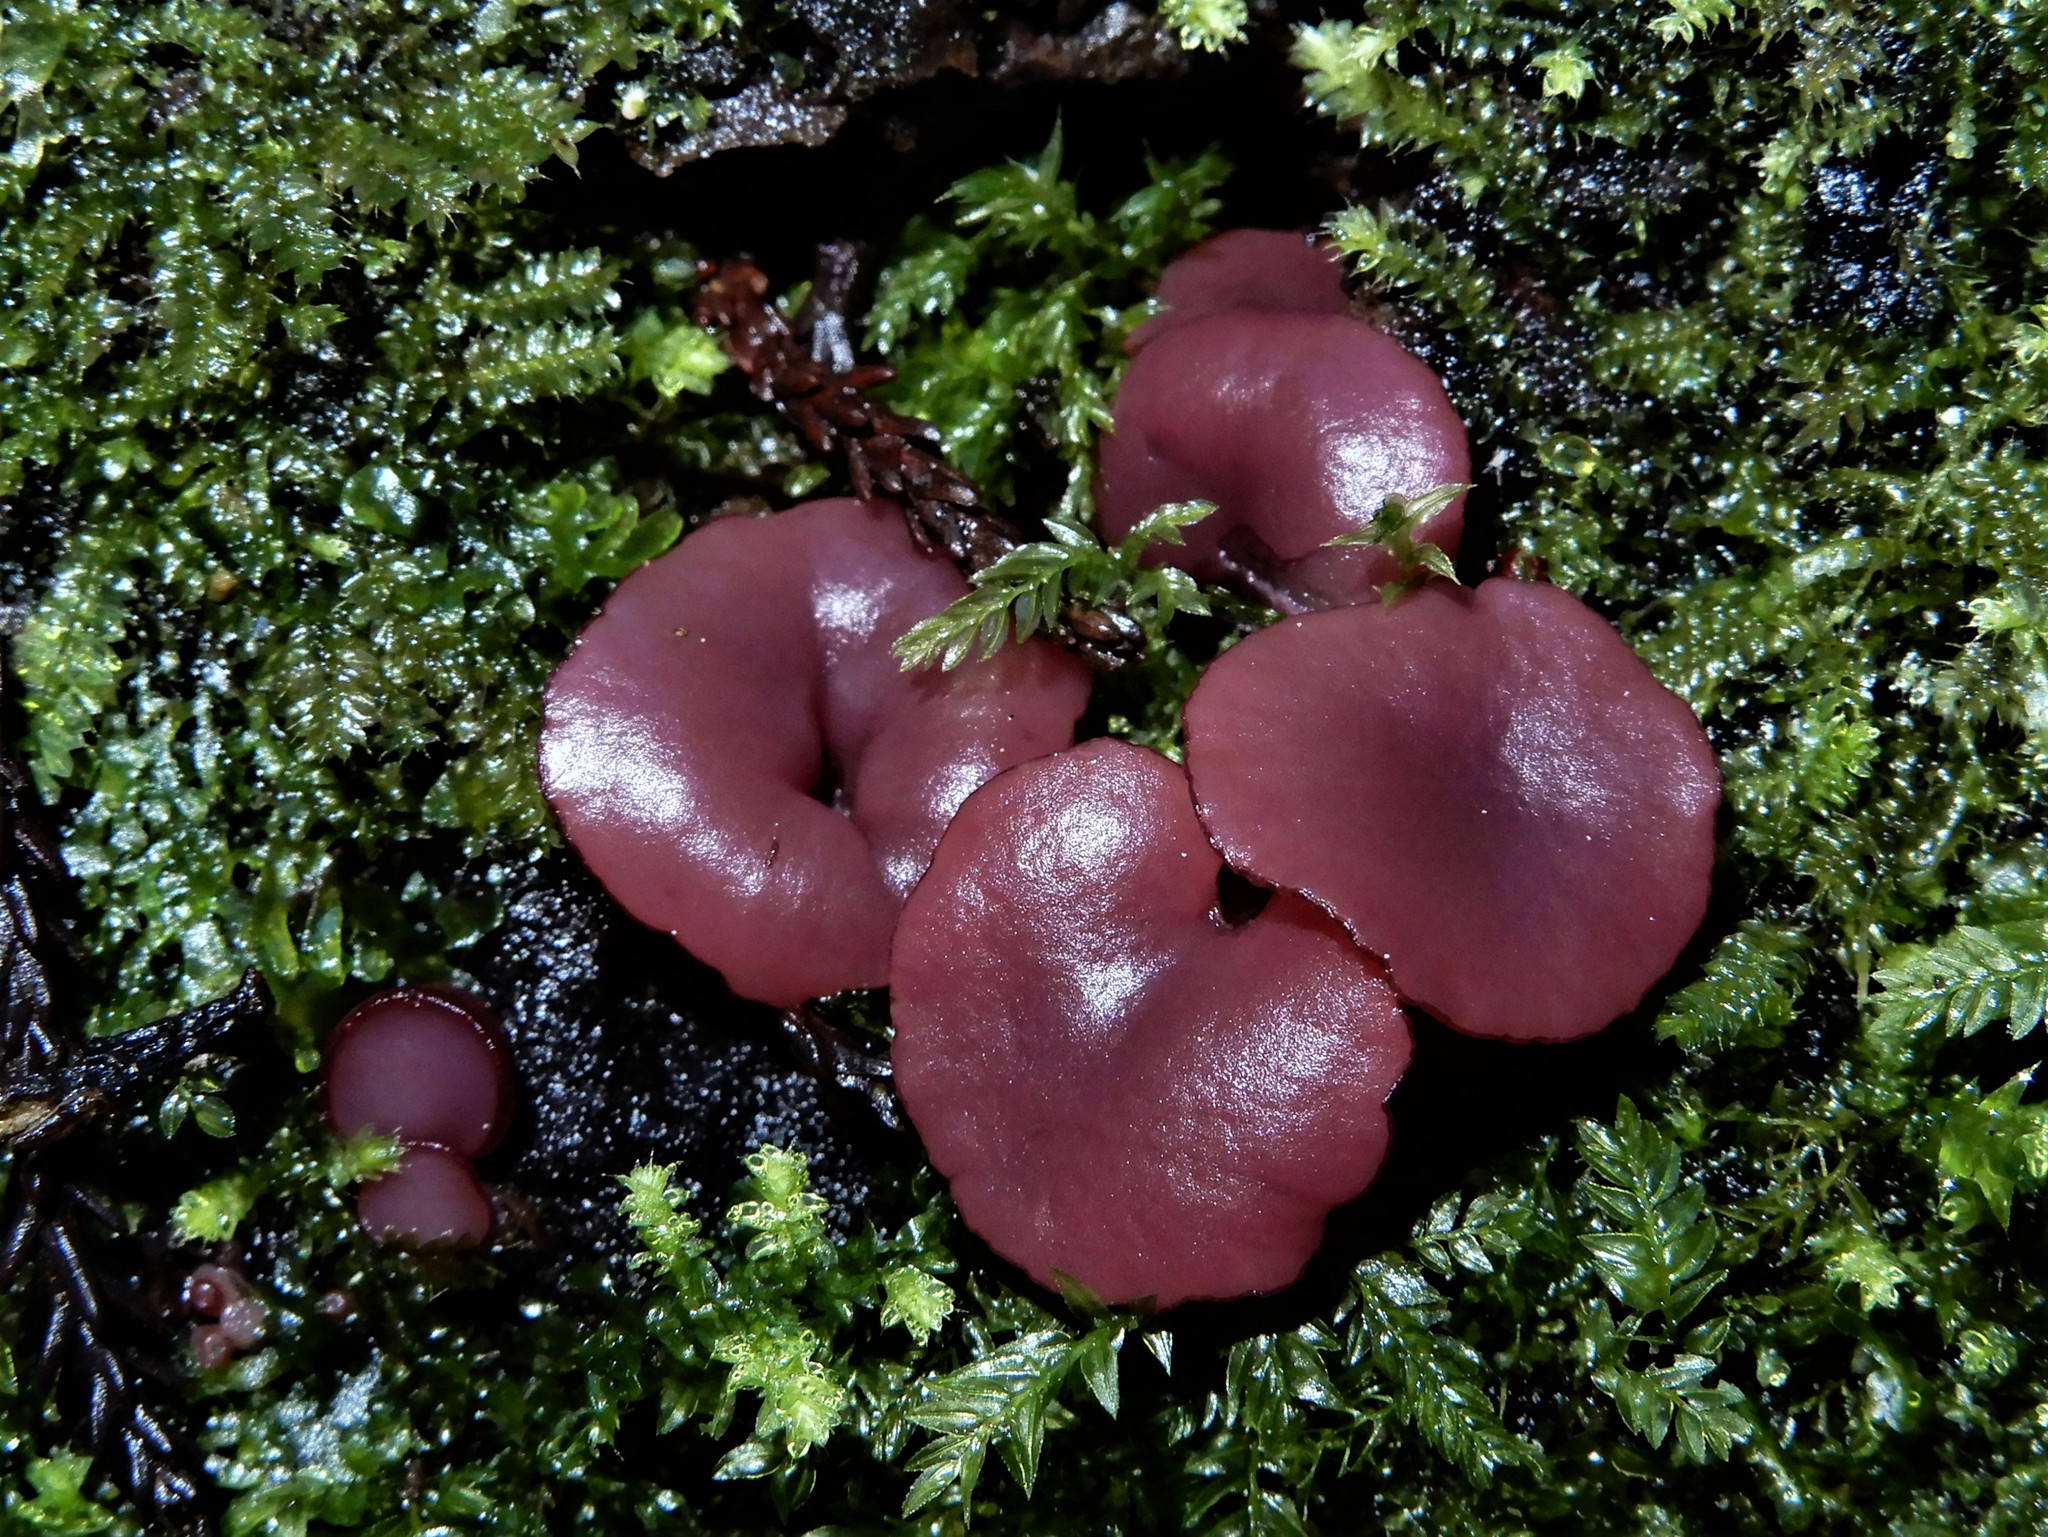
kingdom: Fungi
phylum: Ascomycota
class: Leotiomycetes
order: Helotiales
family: Gelatinodiscaceae
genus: Ascocoryne
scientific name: Ascocoryne sarcoides
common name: Purple jellydisc
